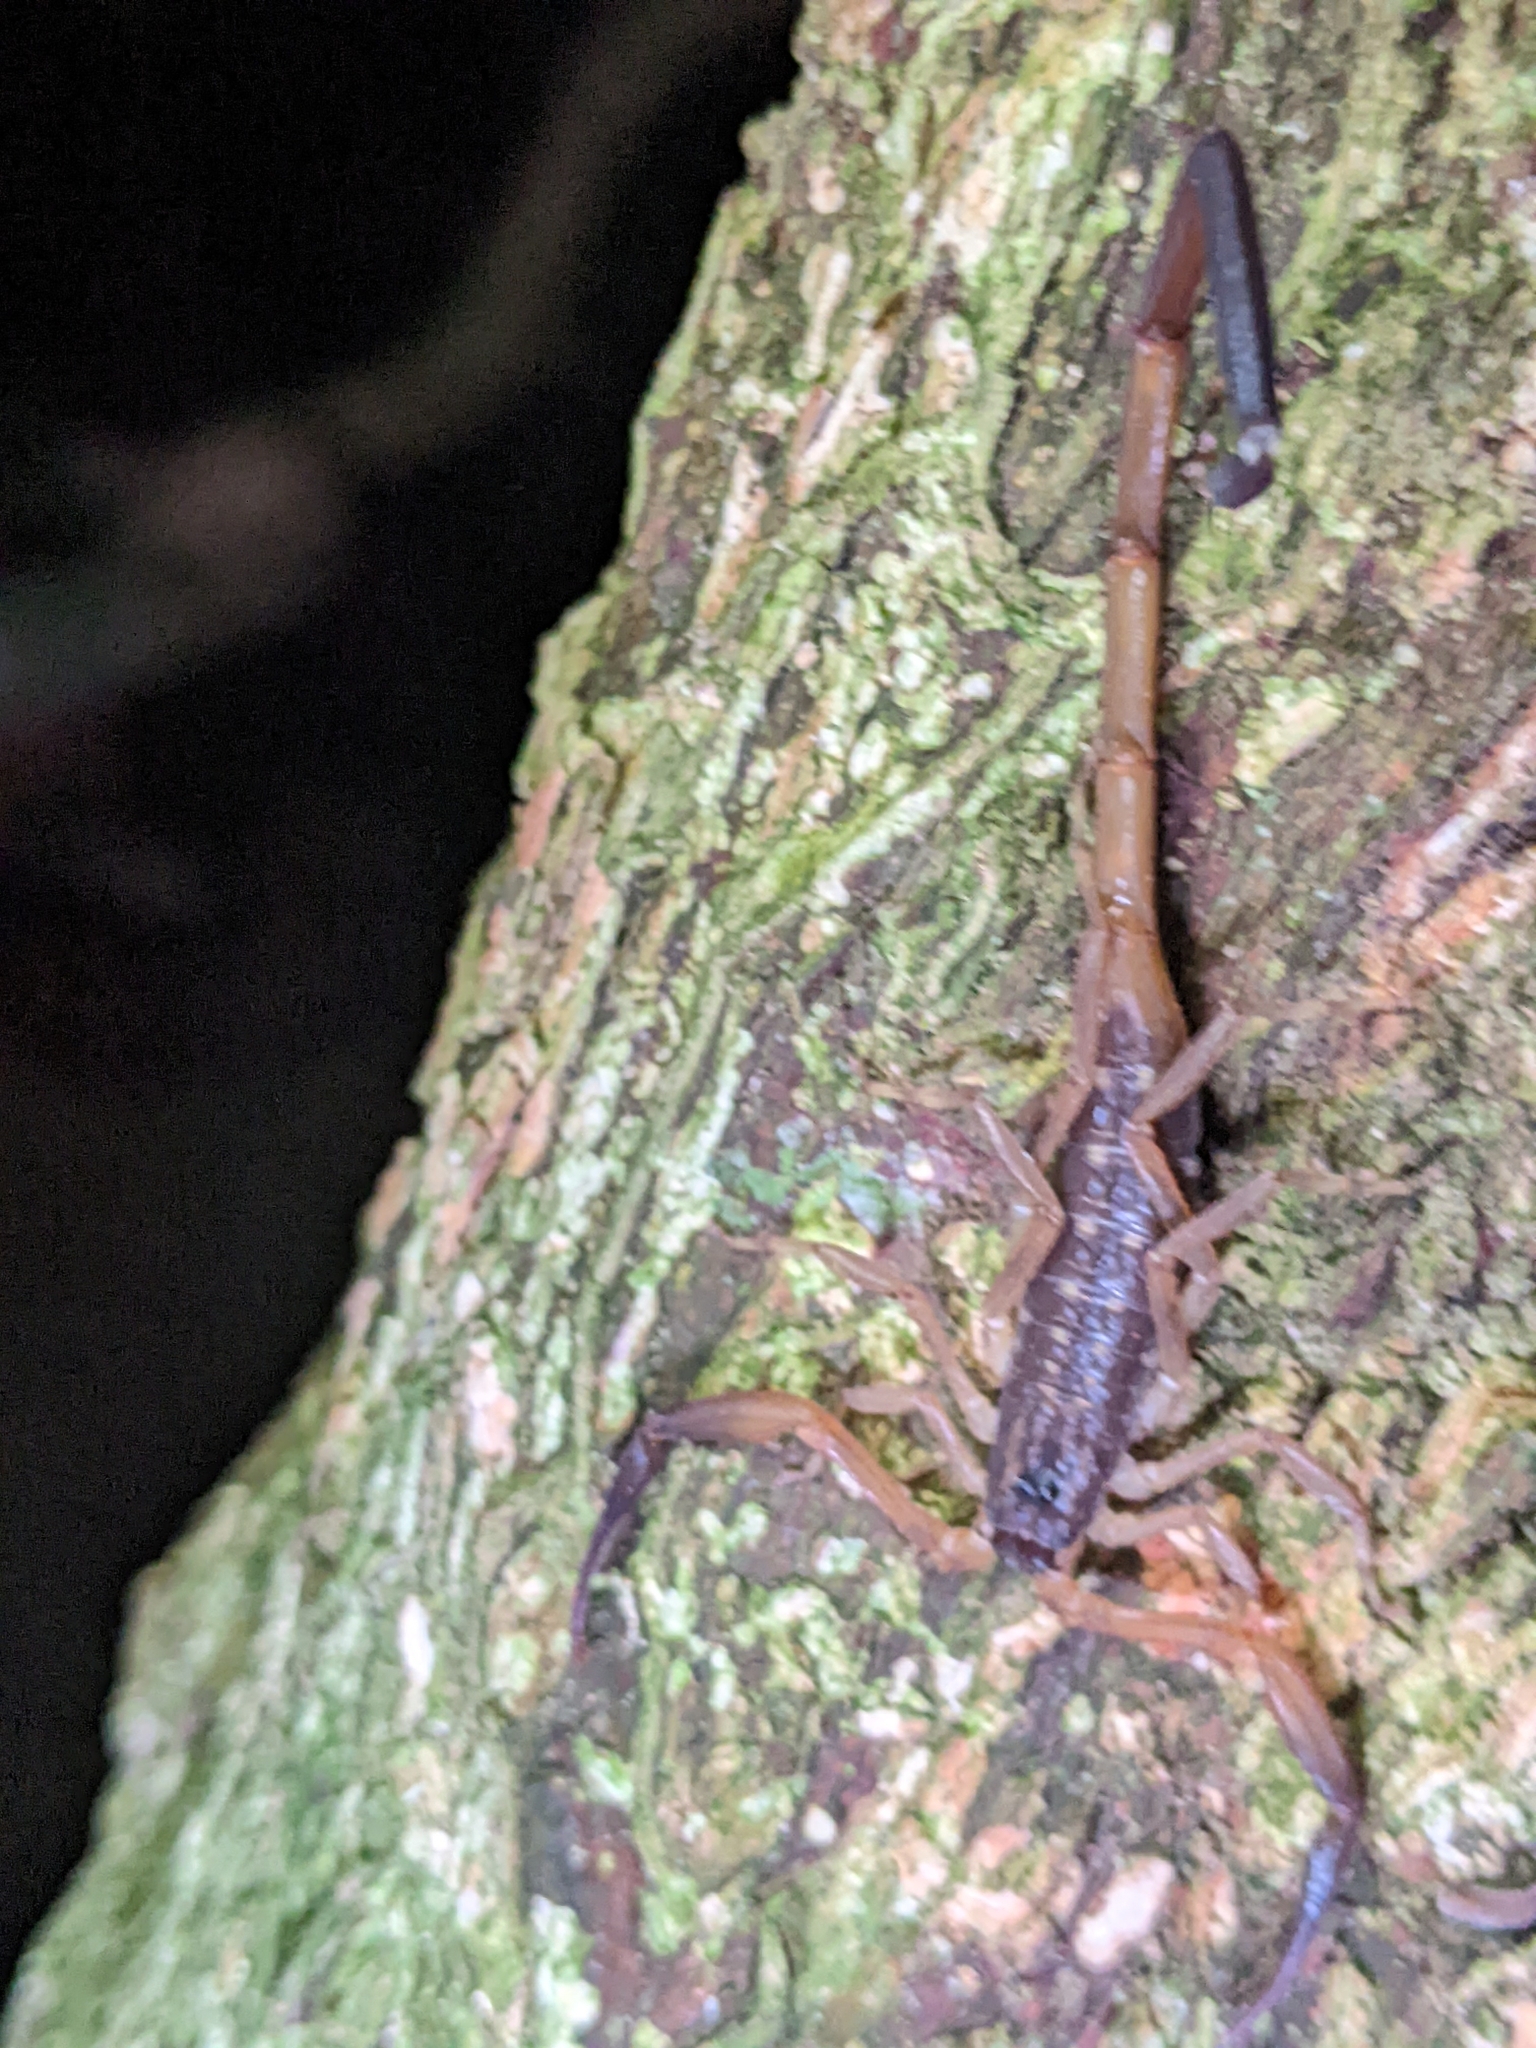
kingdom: Animalia
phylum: Arthropoda
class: Arachnida
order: Scorpiones
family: Buthidae
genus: Lychas
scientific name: Lychas scutilus
